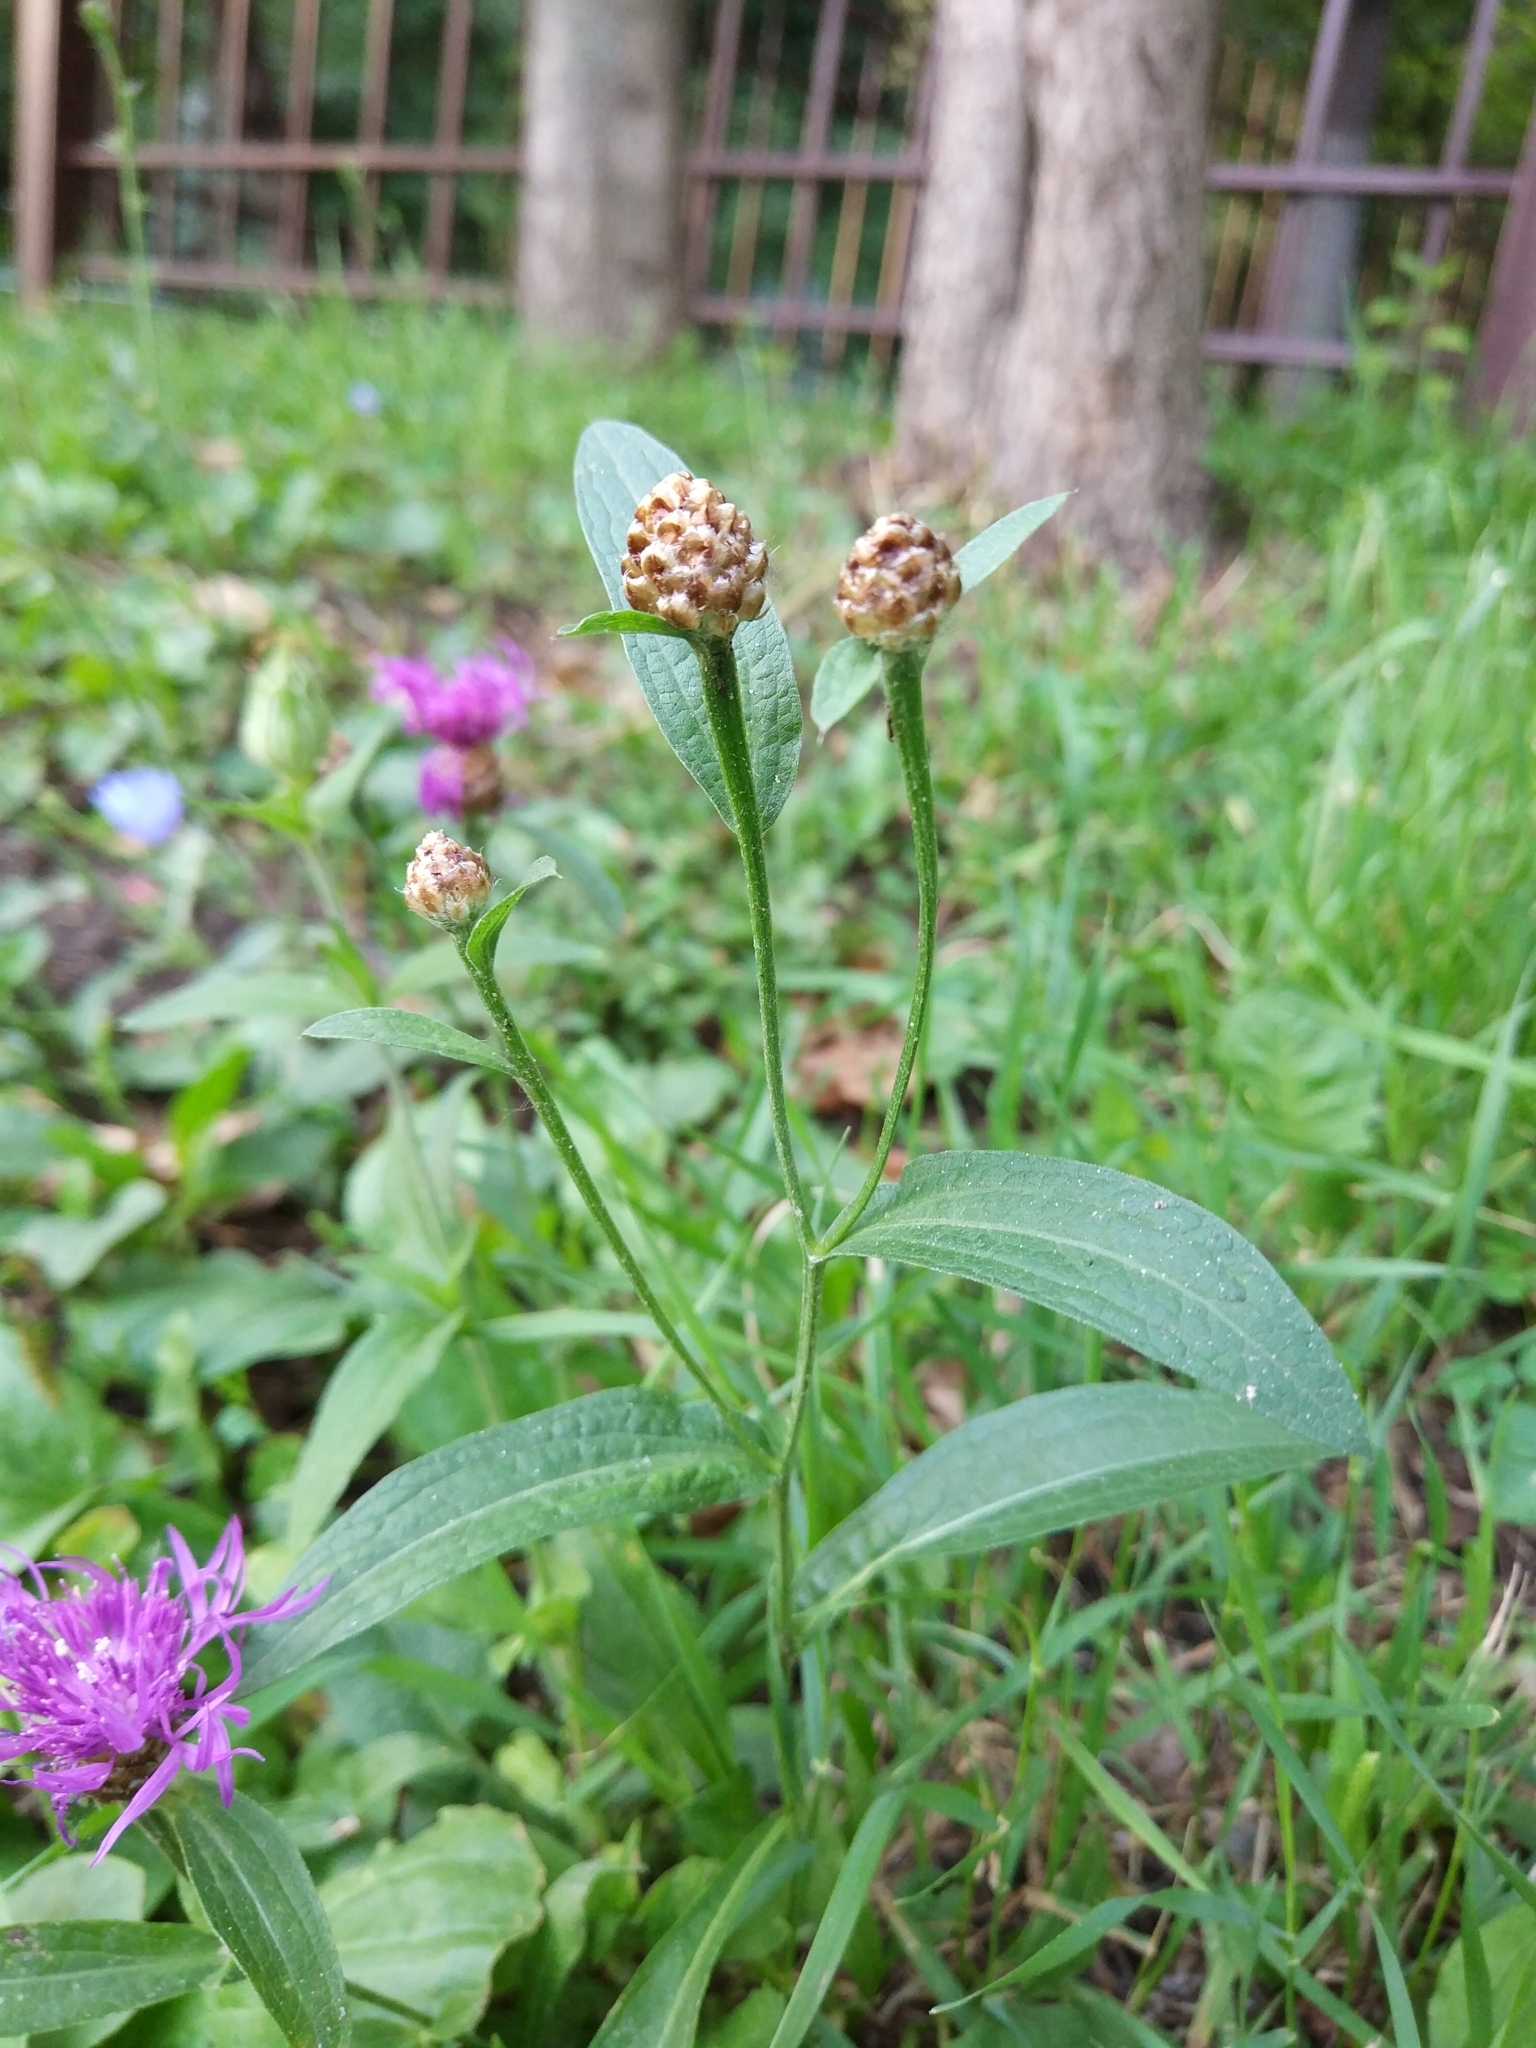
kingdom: Plantae
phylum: Tracheophyta
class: Magnoliopsida
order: Asterales
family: Asteraceae
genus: Centaurea
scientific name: Centaurea jacea
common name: Brown knapweed
